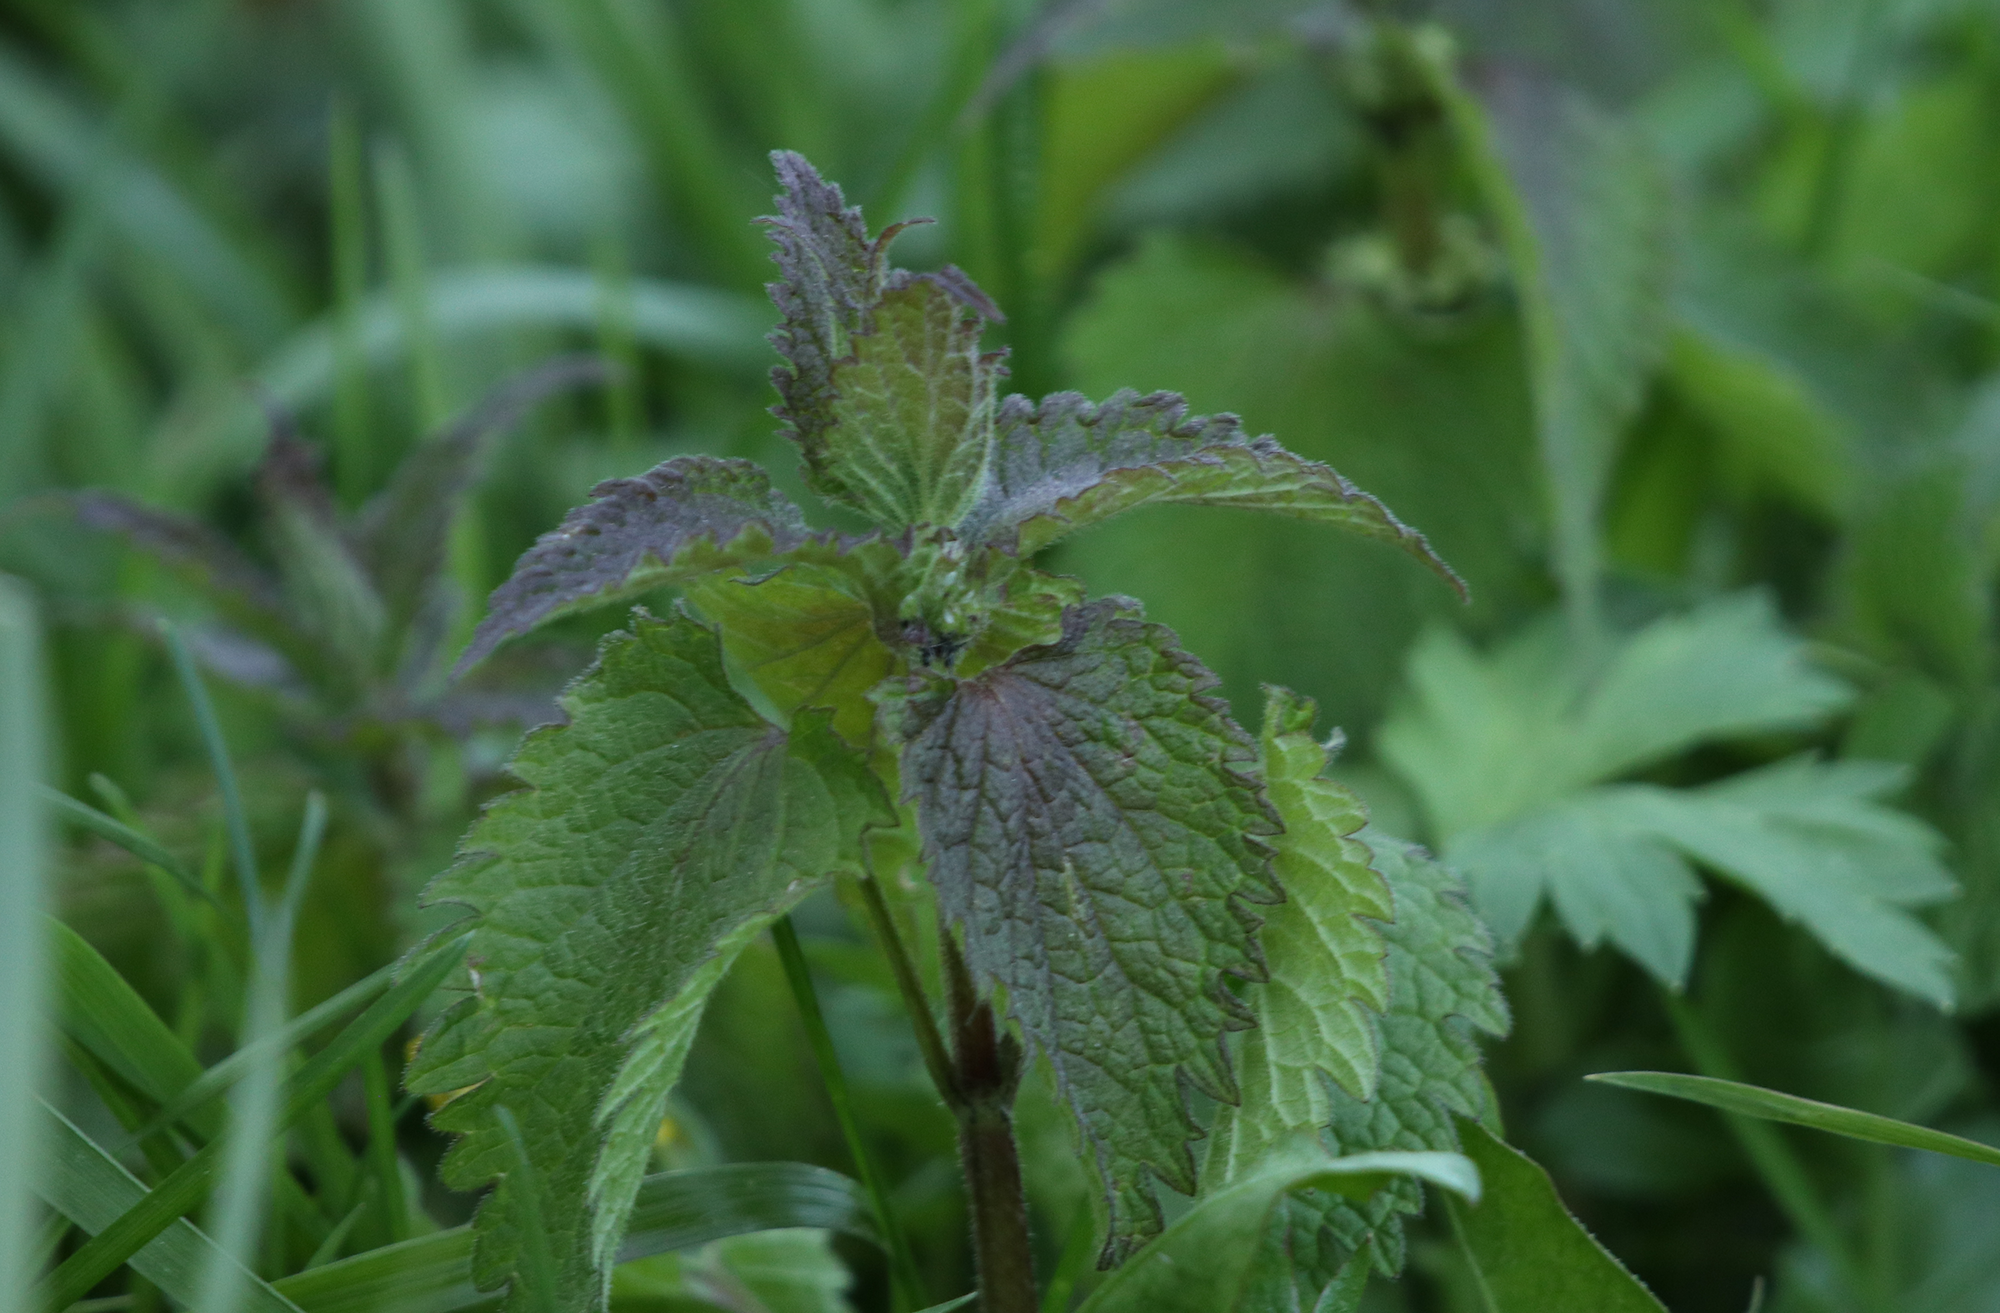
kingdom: Plantae
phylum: Tracheophyta
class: Magnoliopsida
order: Lamiales
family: Lamiaceae
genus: Lamium
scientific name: Lamium album
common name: White dead-nettle
